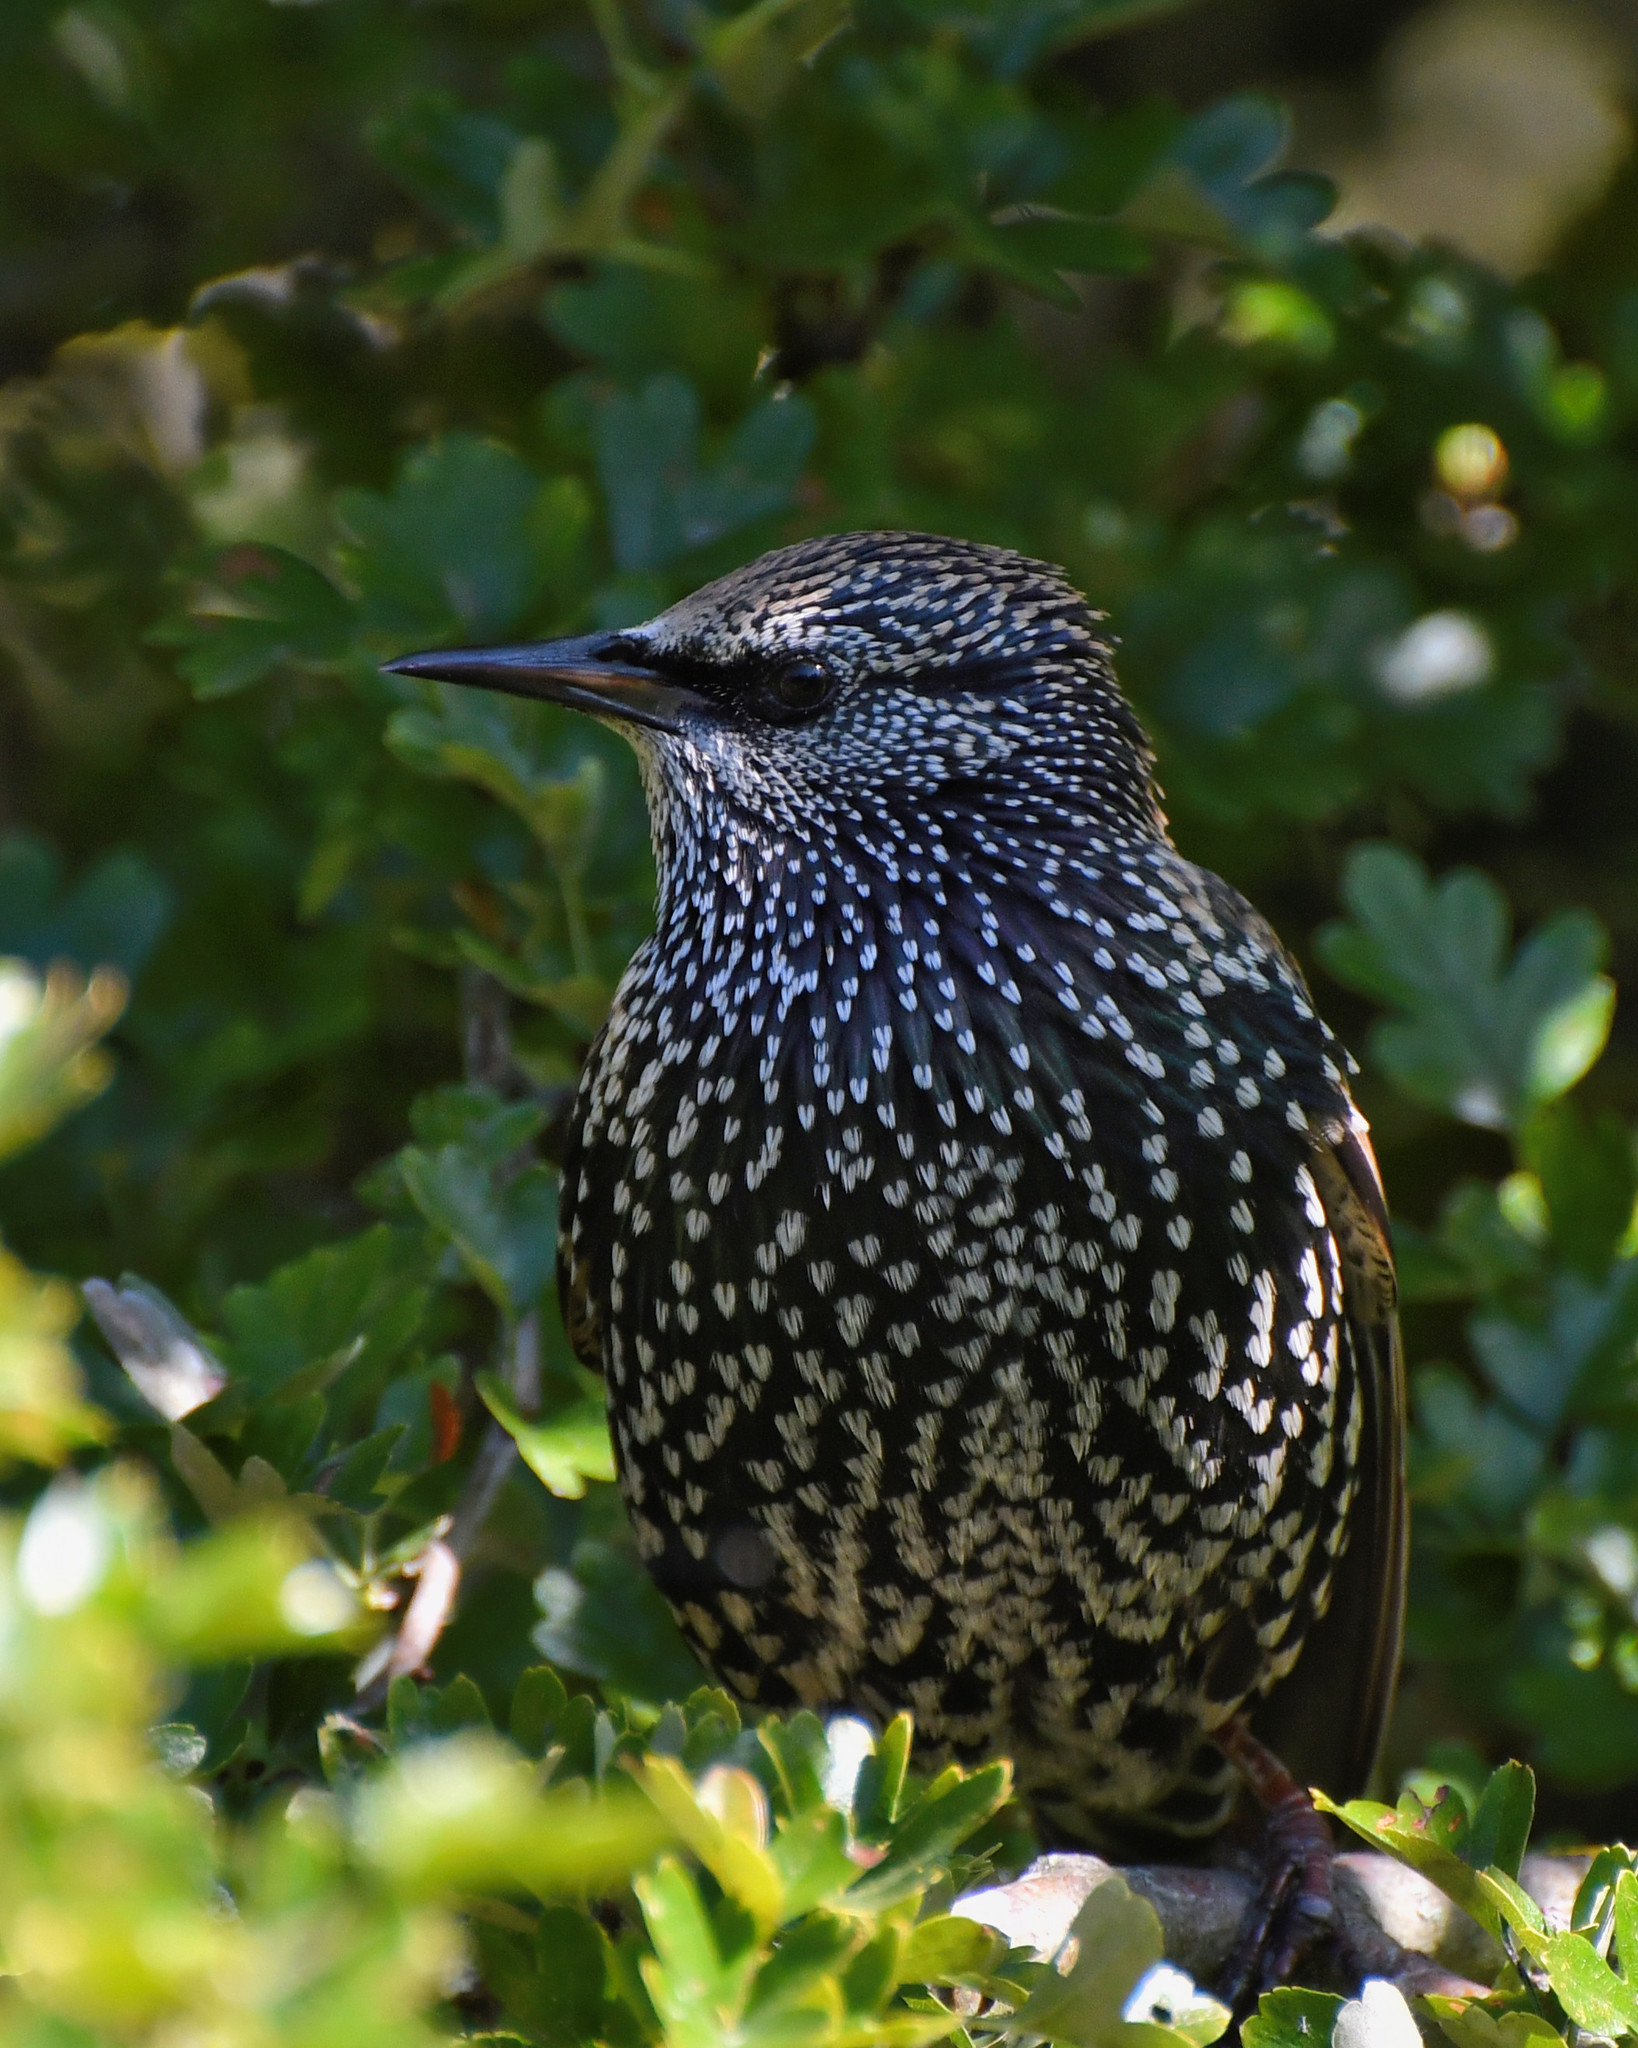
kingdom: Animalia
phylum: Chordata
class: Aves
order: Passeriformes
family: Sturnidae
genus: Sturnus
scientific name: Sturnus vulgaris
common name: Common starling
